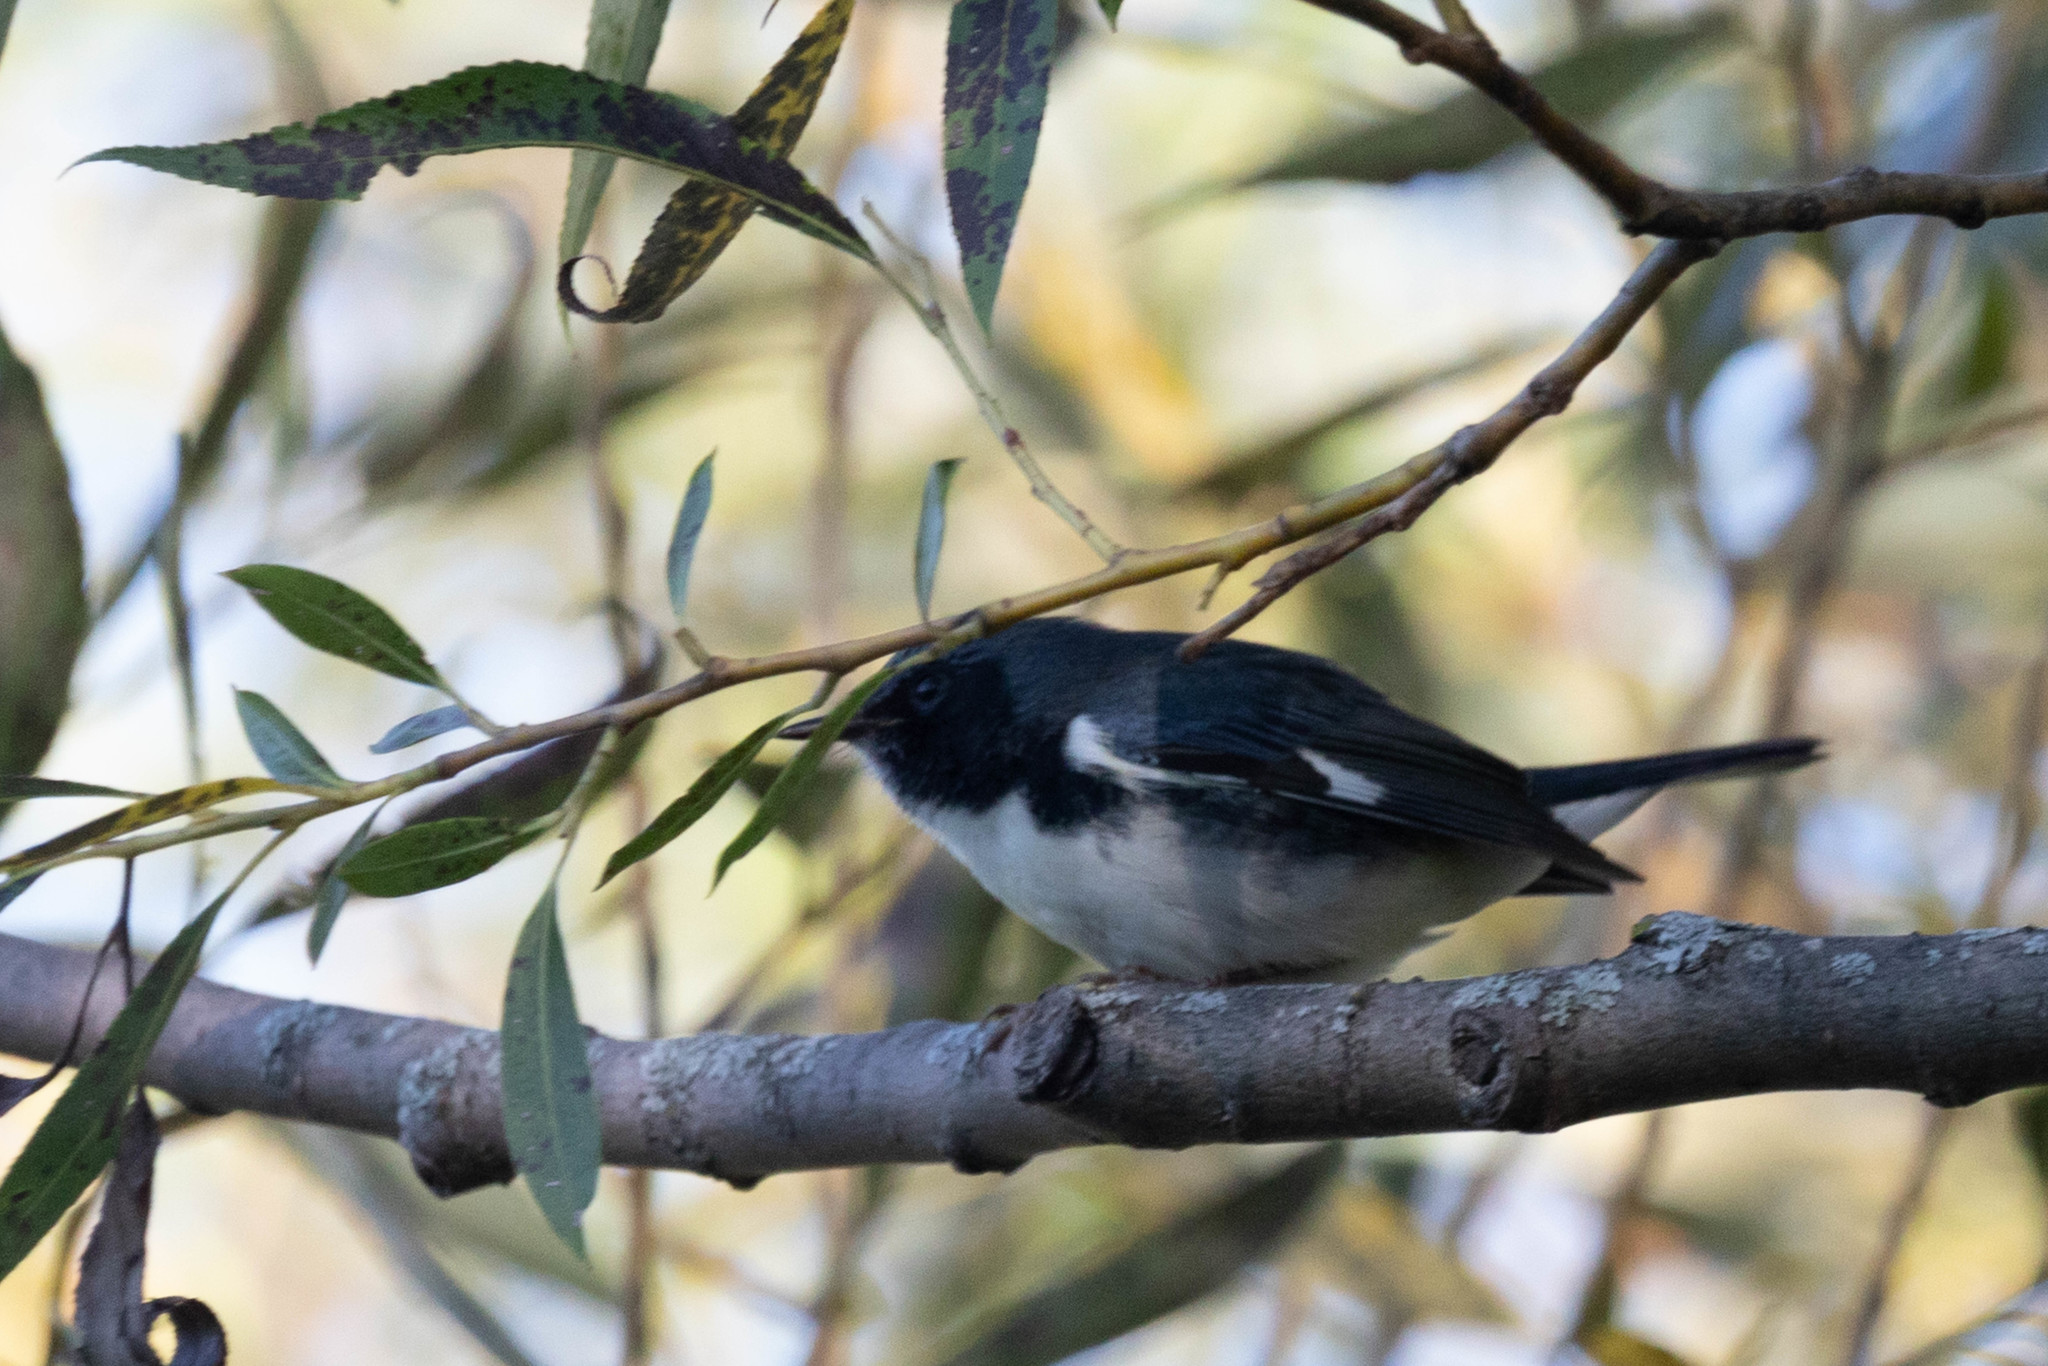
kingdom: Animalia
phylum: Chordata
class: Aves
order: Passeriformes
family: Parulidae
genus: Setophaga
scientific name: Setophaga caerulescens
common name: Black-throated blue warbler
